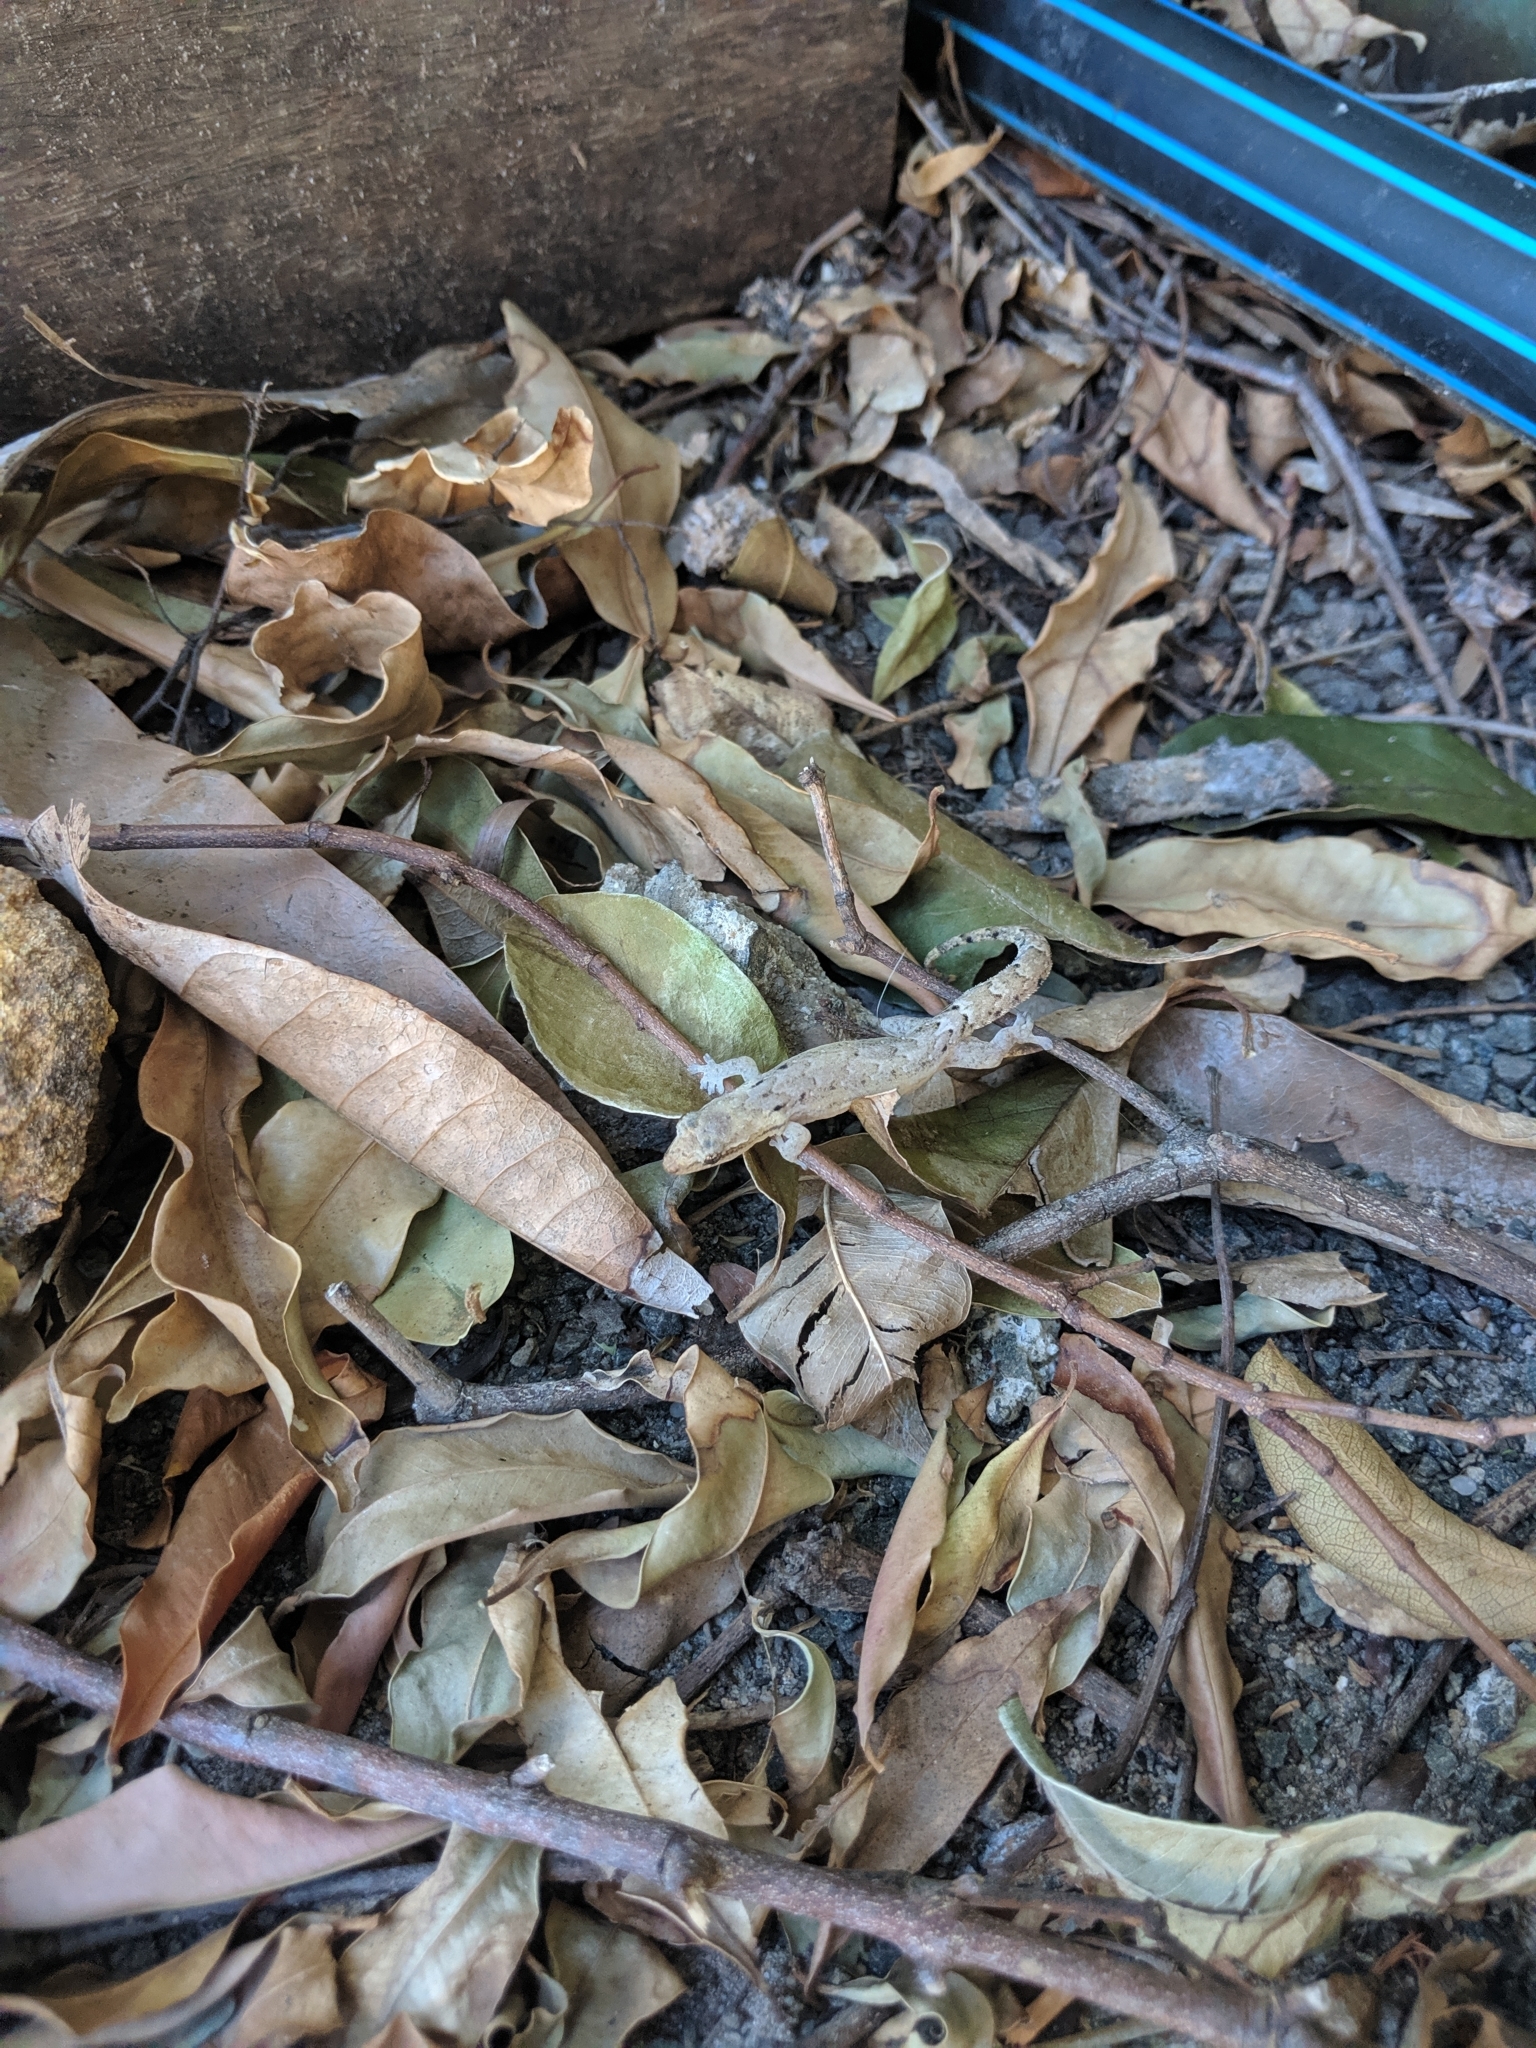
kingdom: Animalia
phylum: Chordata
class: Squamata
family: Gekkonidae
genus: Lepidodactylus
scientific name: Lepidodactylus lugubris
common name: Mourning gecko
